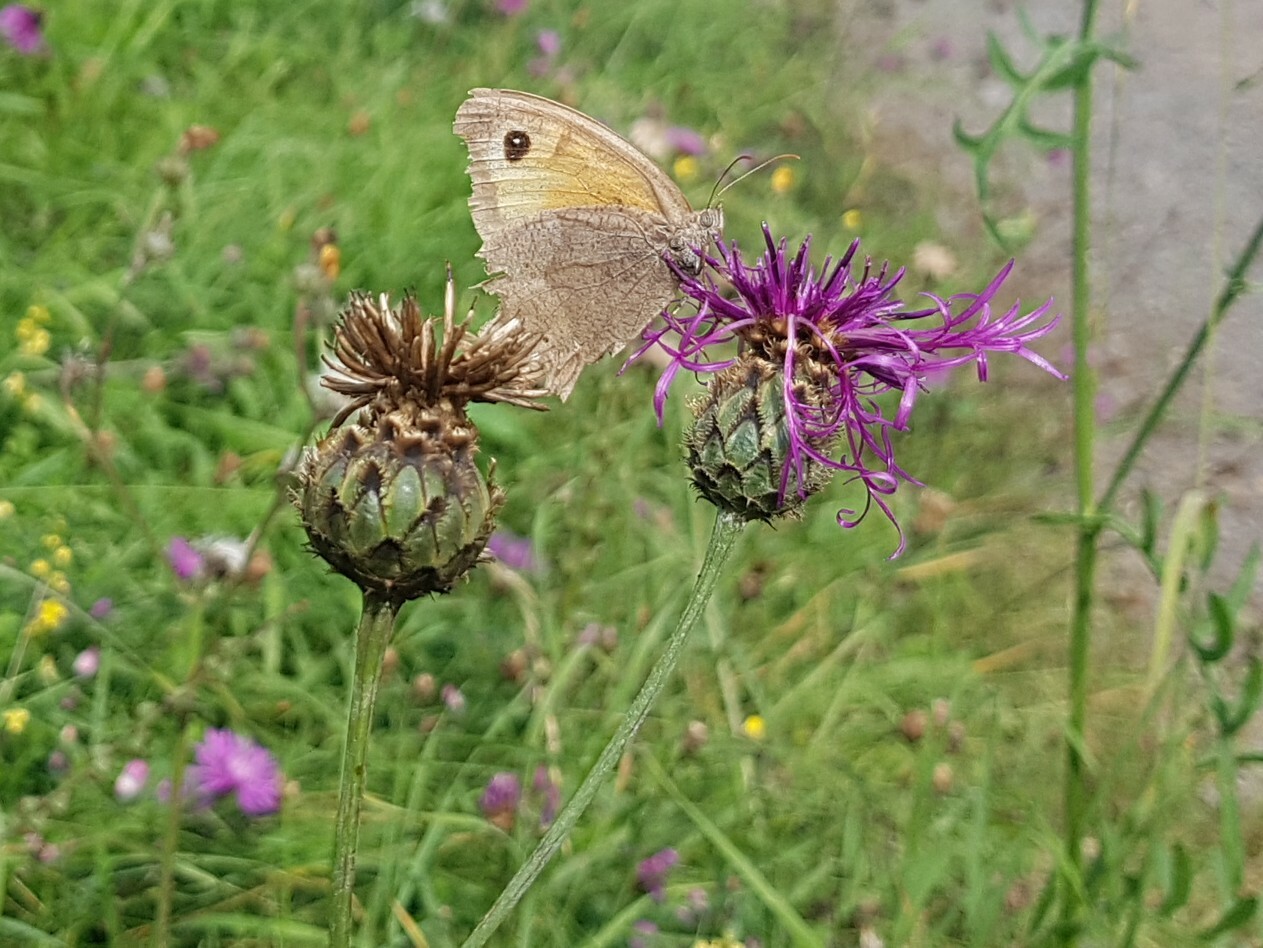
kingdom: Animalia
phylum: Arthropoda
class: Insecta
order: Lepidoptera
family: Nymphalidae
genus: Maniola
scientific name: Maniola jurtina
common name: Meadow brown
